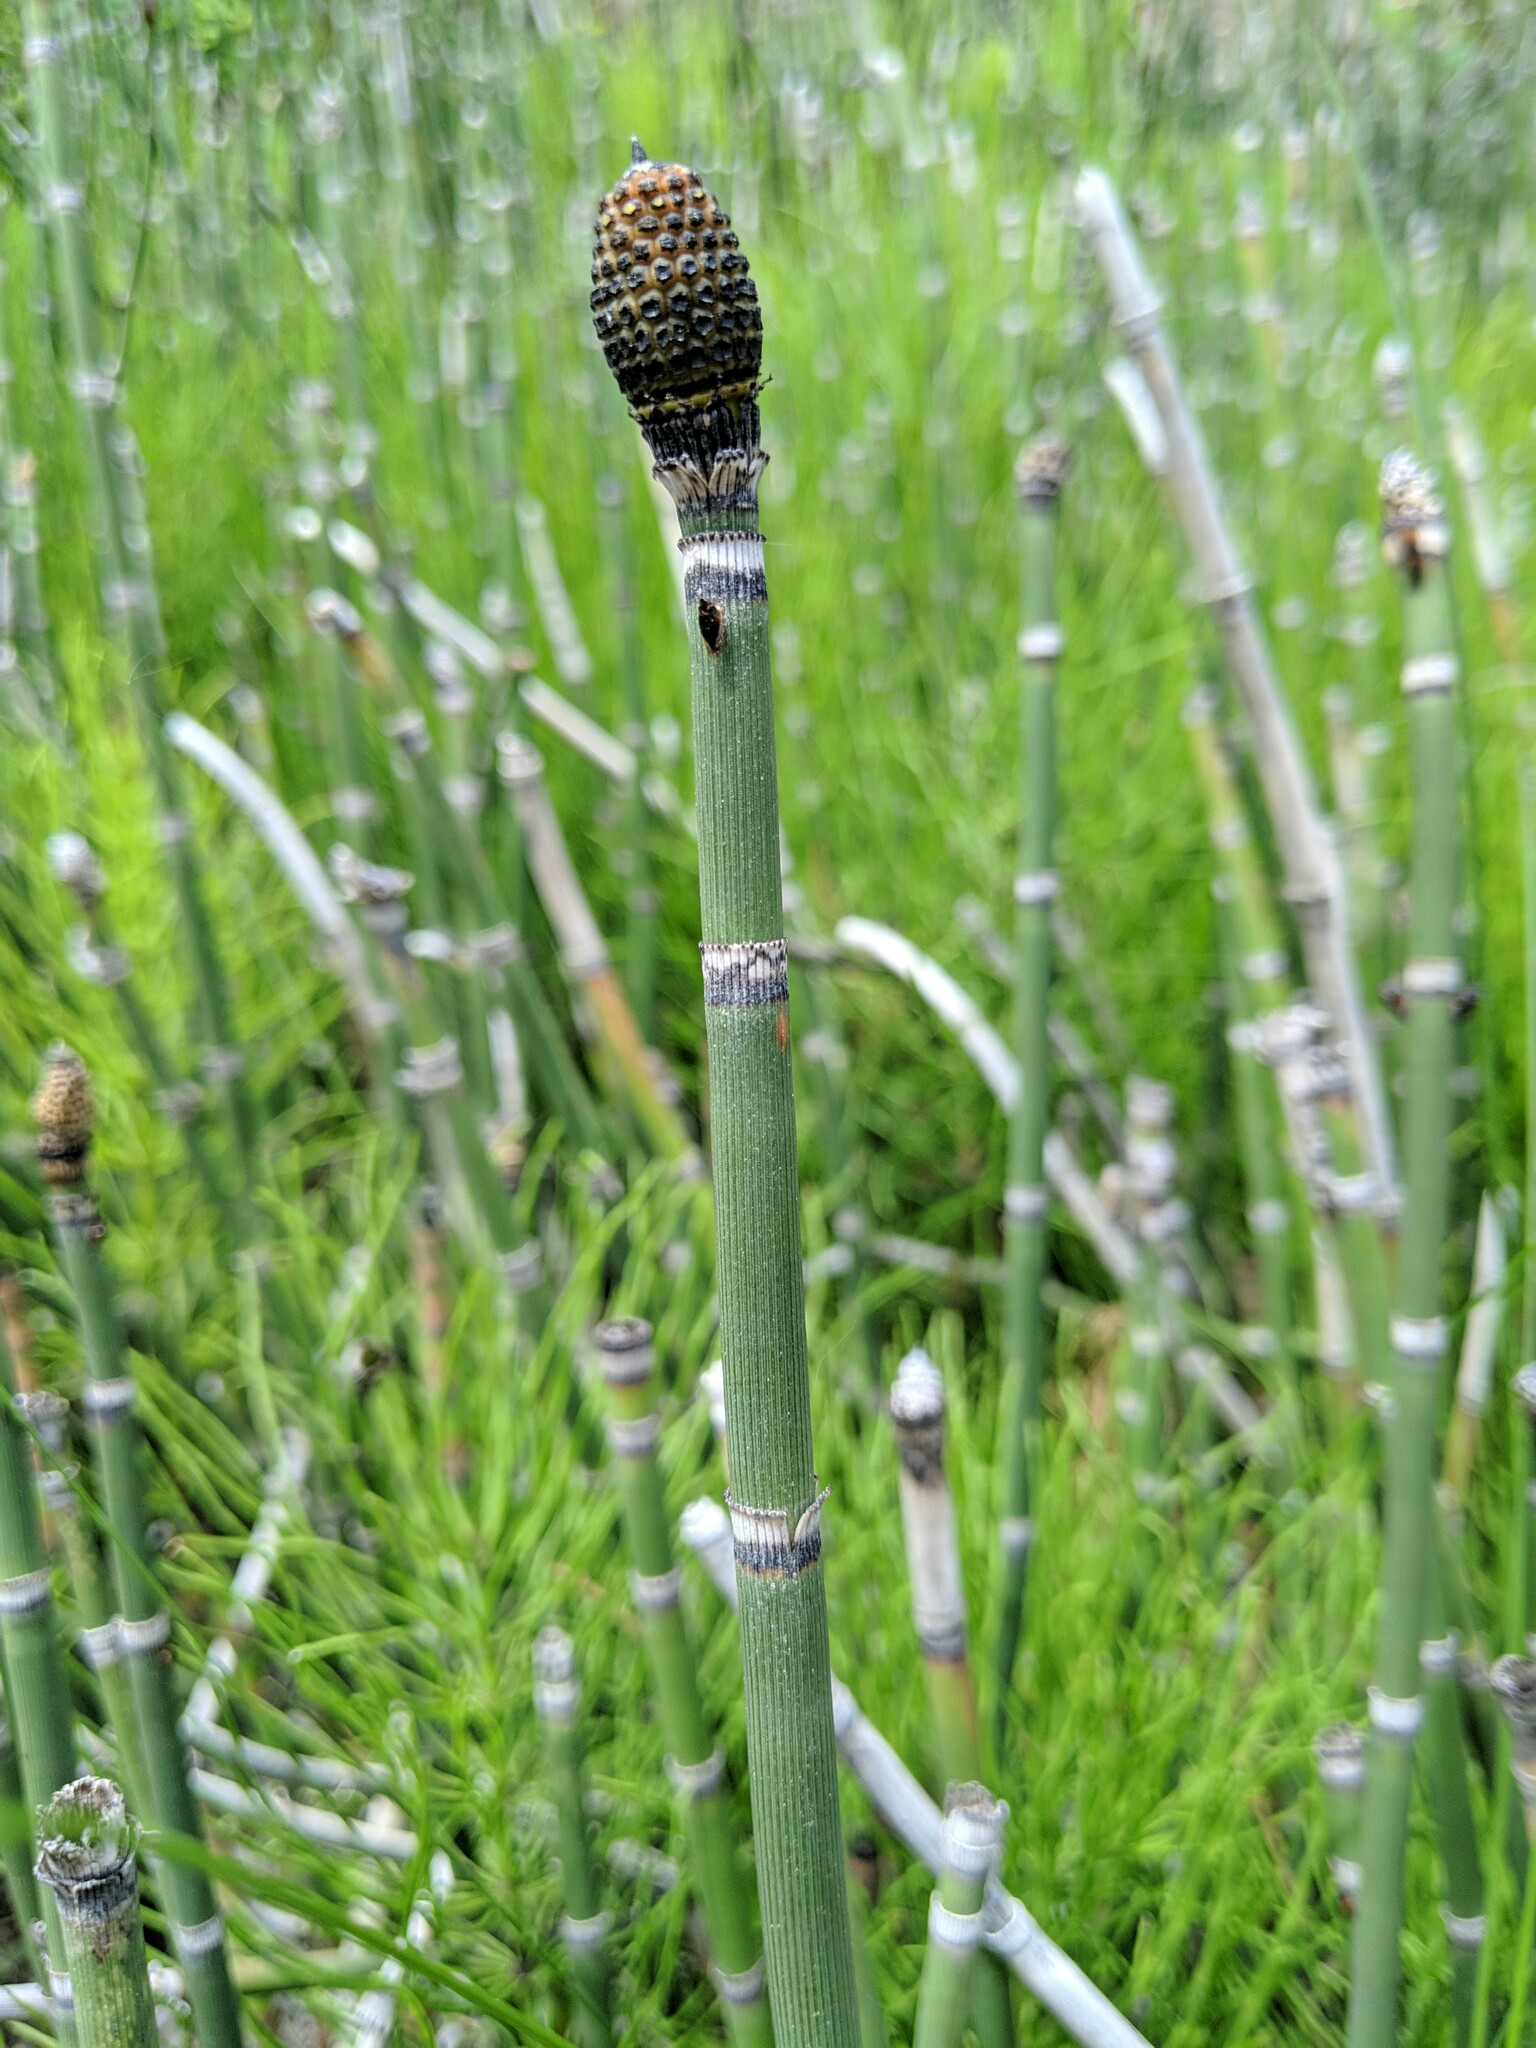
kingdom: Plantae
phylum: Tracheophyta
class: Polypodiopsida
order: Equisetales
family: Equisetaceae
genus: Equisetum
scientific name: Equisetum praealtum
